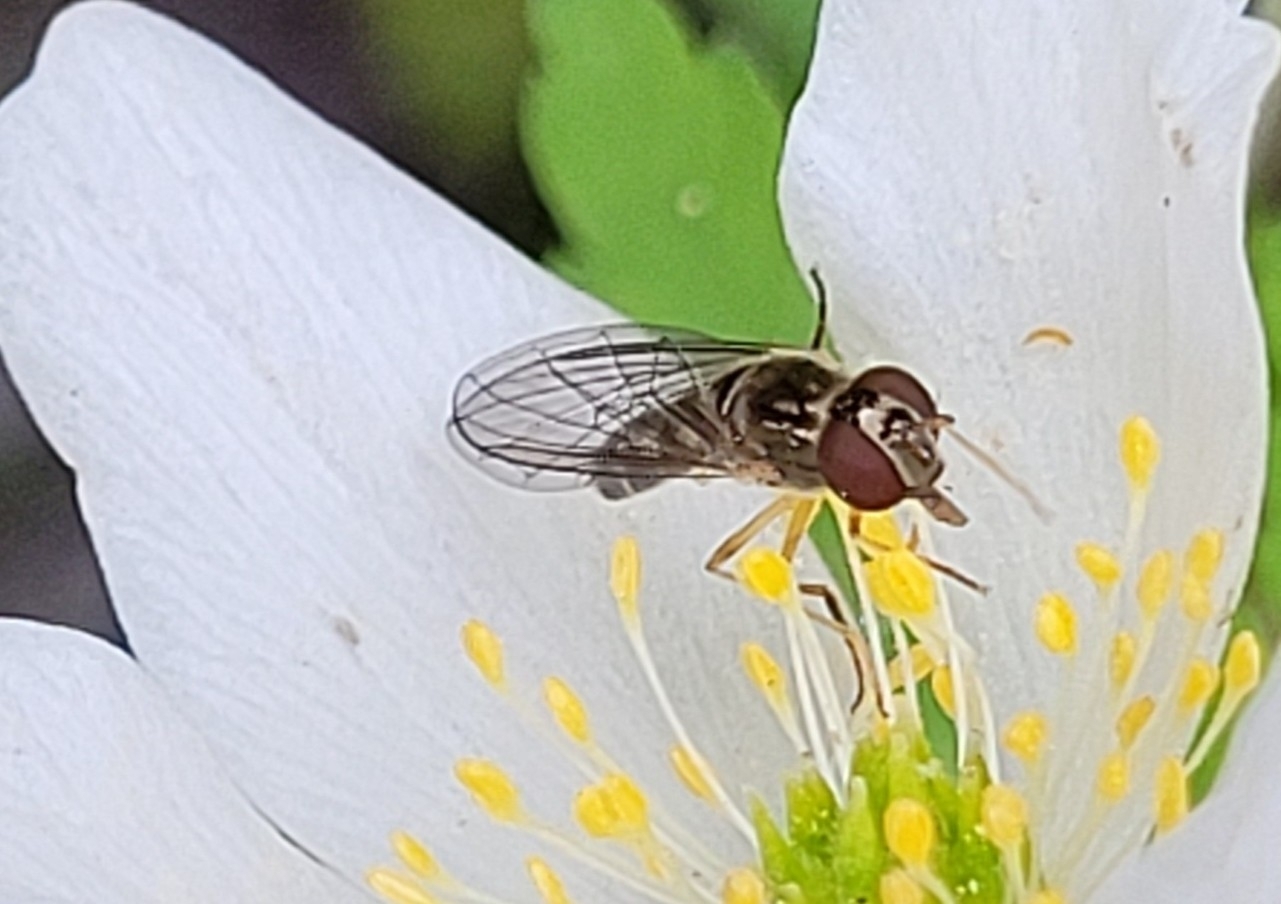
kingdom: Animalia
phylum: Arthropoda
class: Insecta
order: Diptera
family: Syrphidae
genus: Melanostoma
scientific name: Melanostoma scalare
